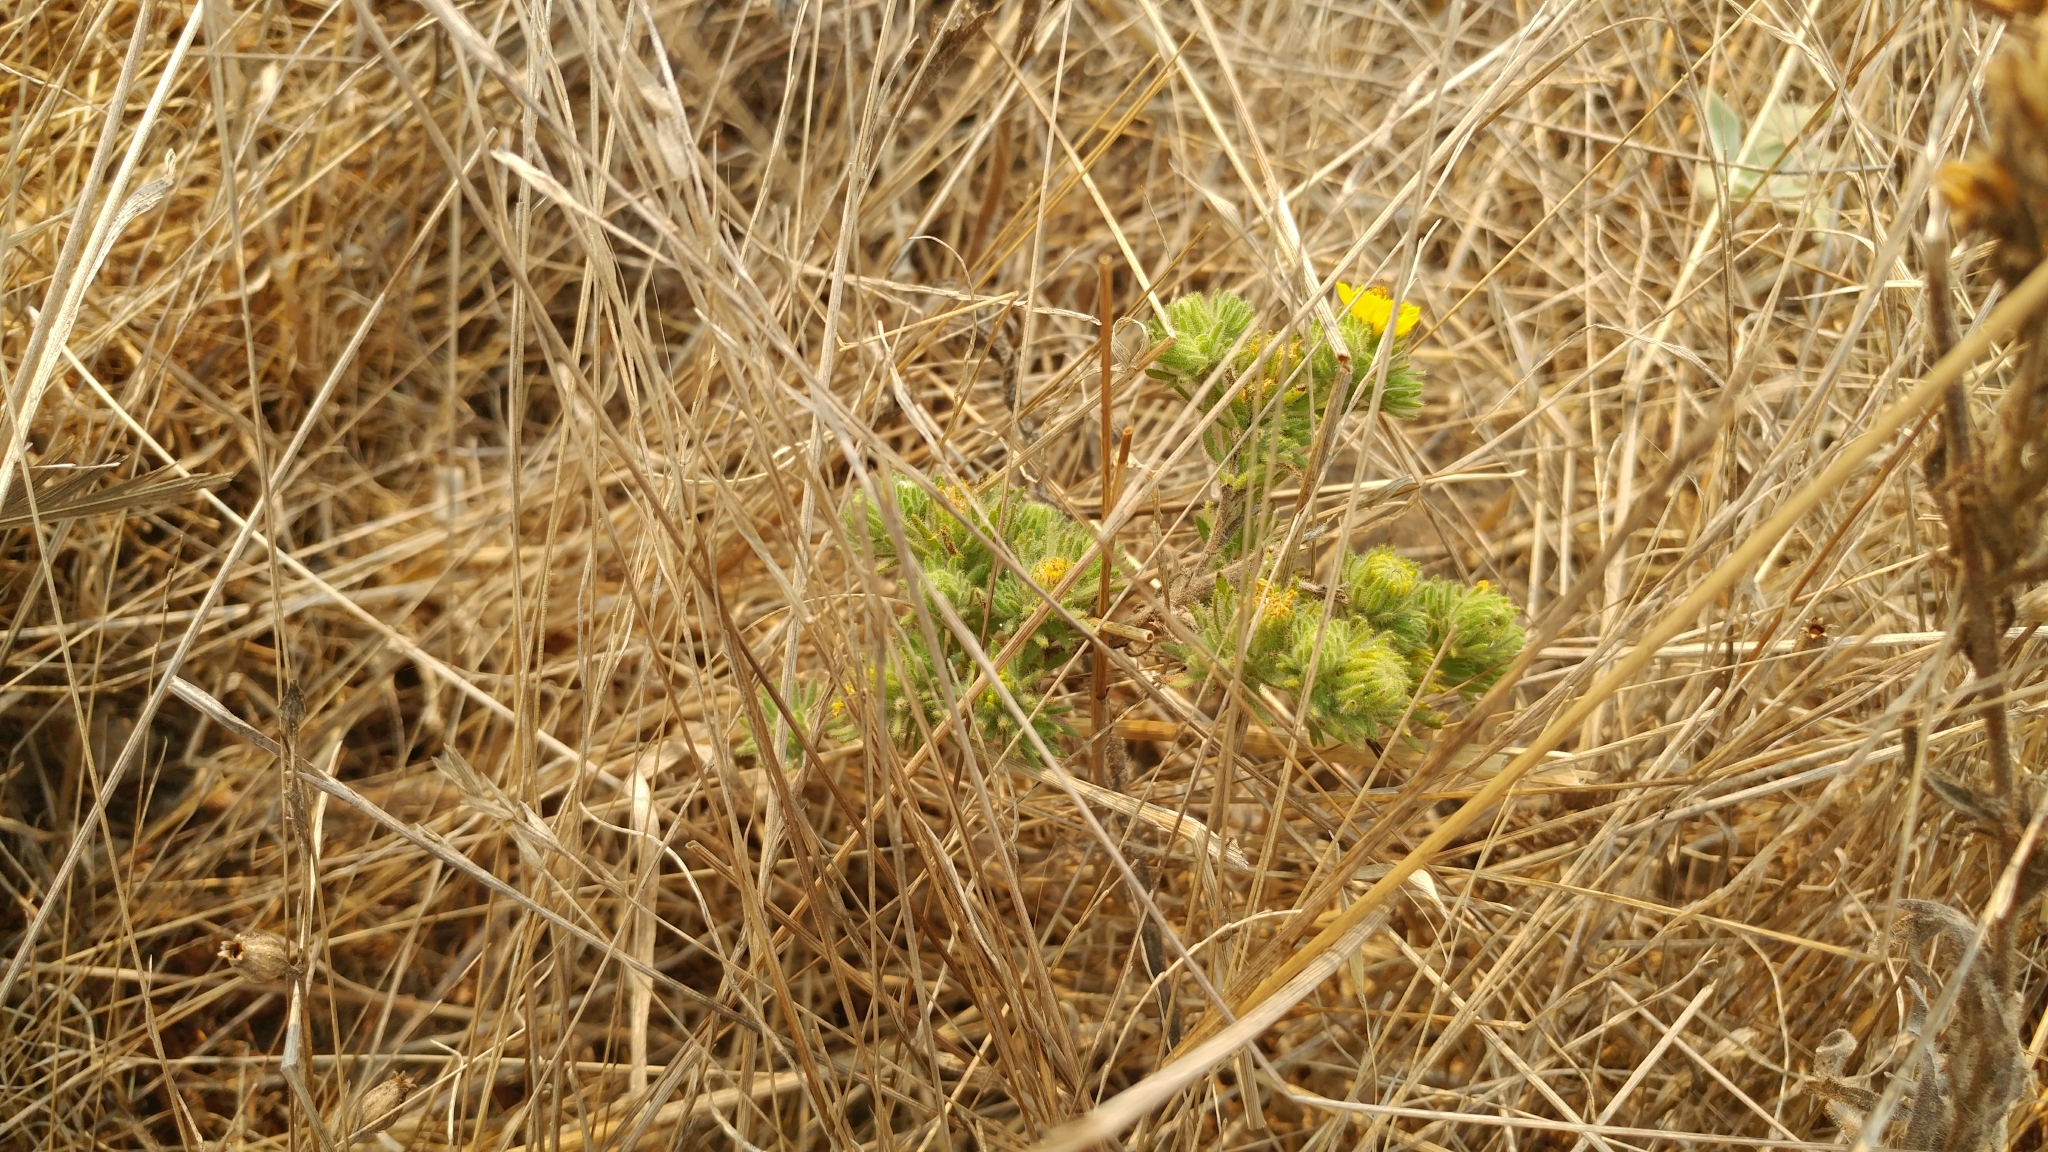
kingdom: Plantae
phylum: Tracheophyta
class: Magnoliopsida
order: Asterales
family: Asteraceae
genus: Deinandra
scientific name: Deinandra increscens
